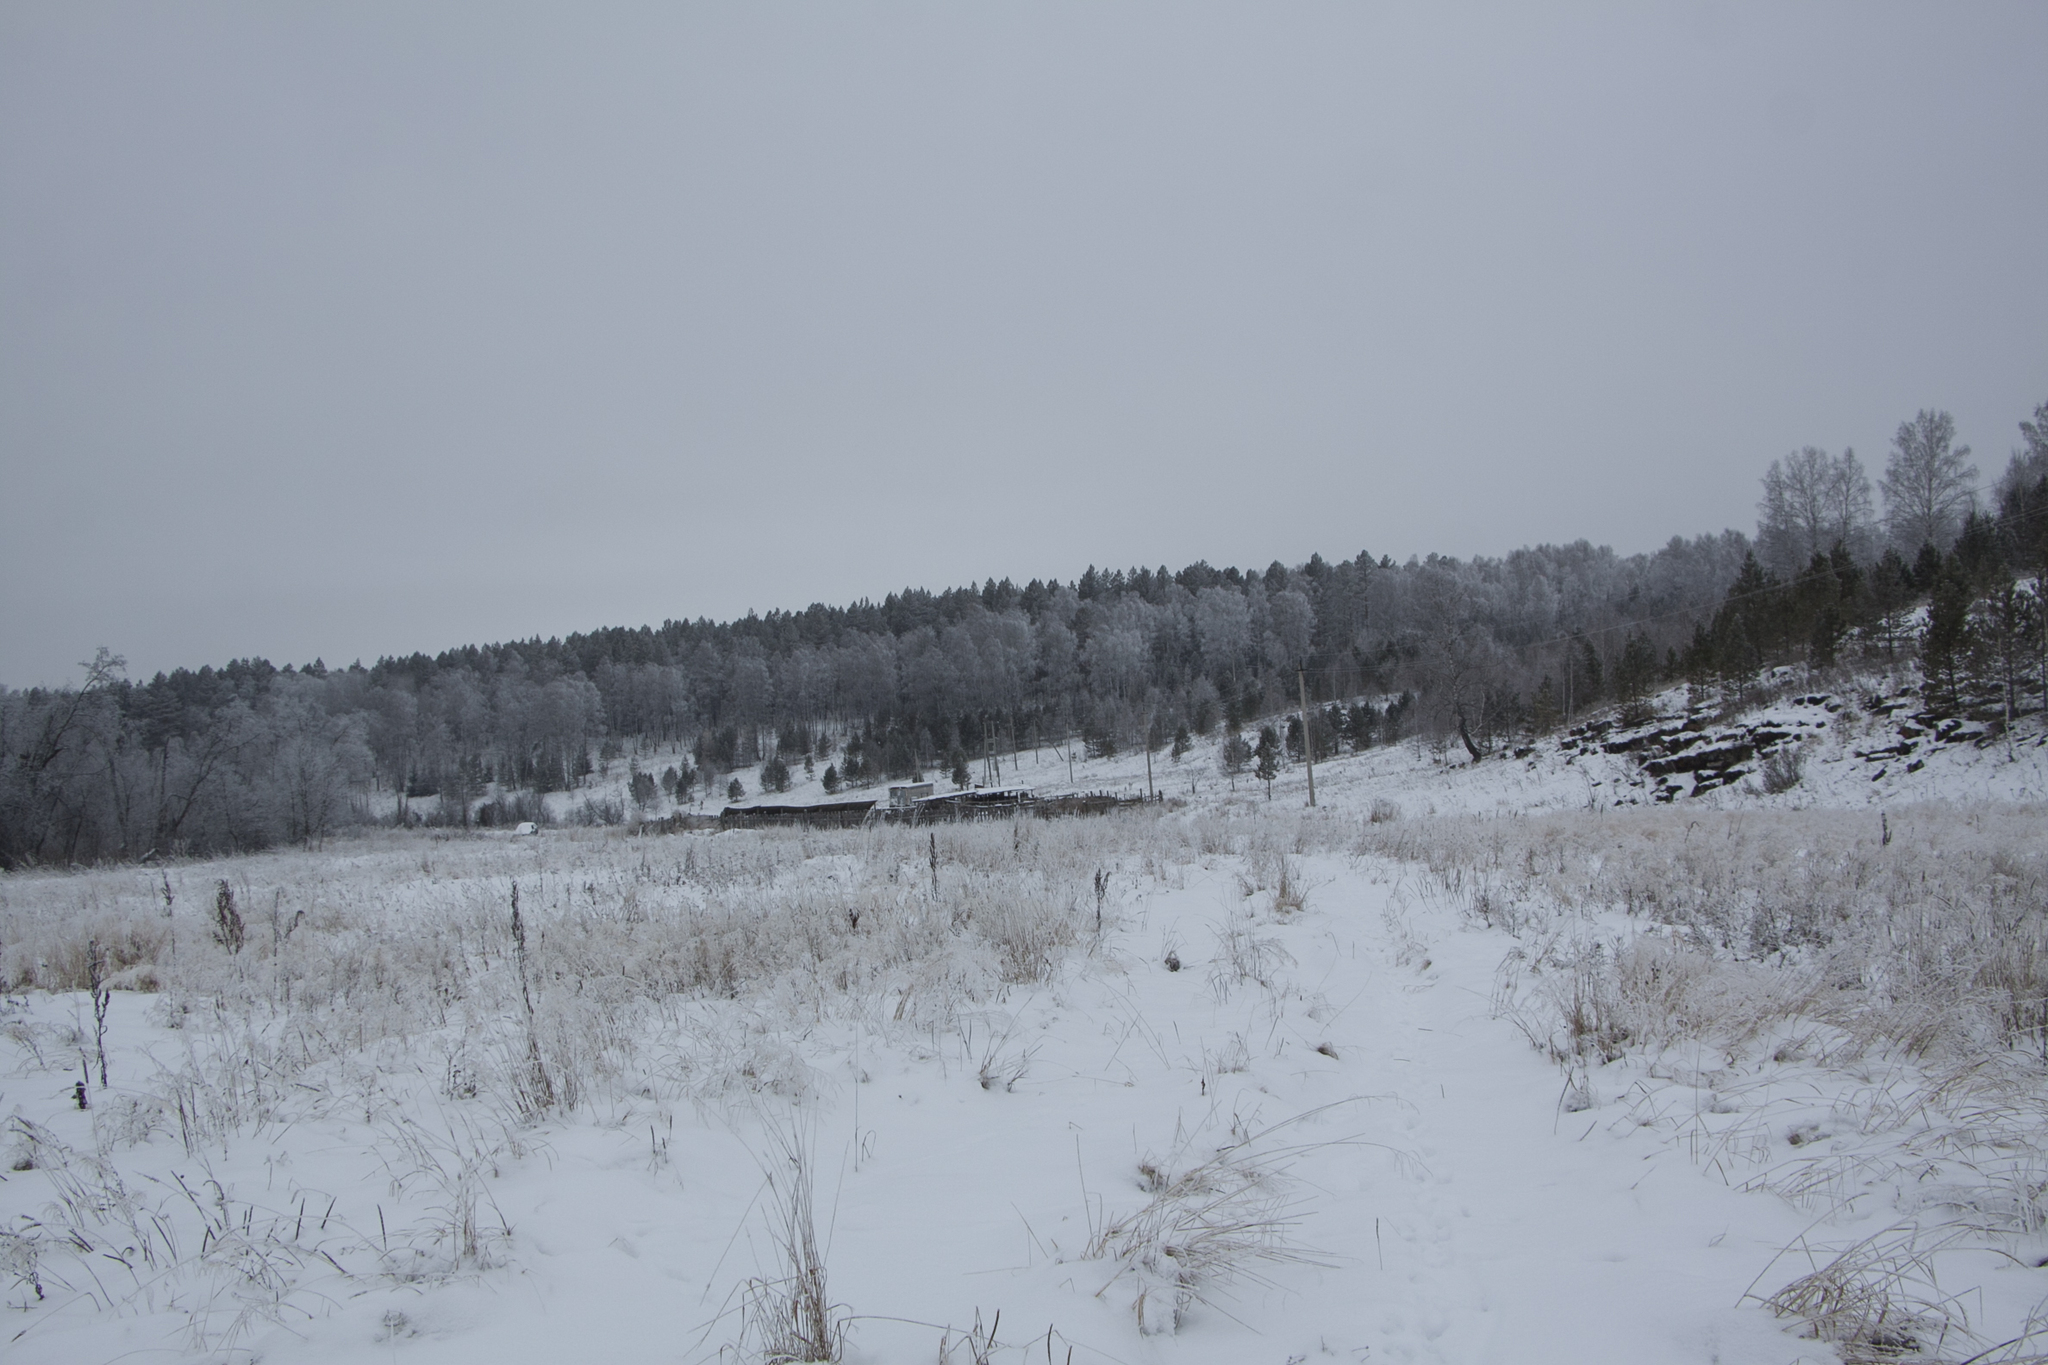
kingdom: Plantae
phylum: Tracheophyta
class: Pinopsida
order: Pinales
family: Pinaceae
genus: Pinus
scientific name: Pinus sylvestris
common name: Scots pine
